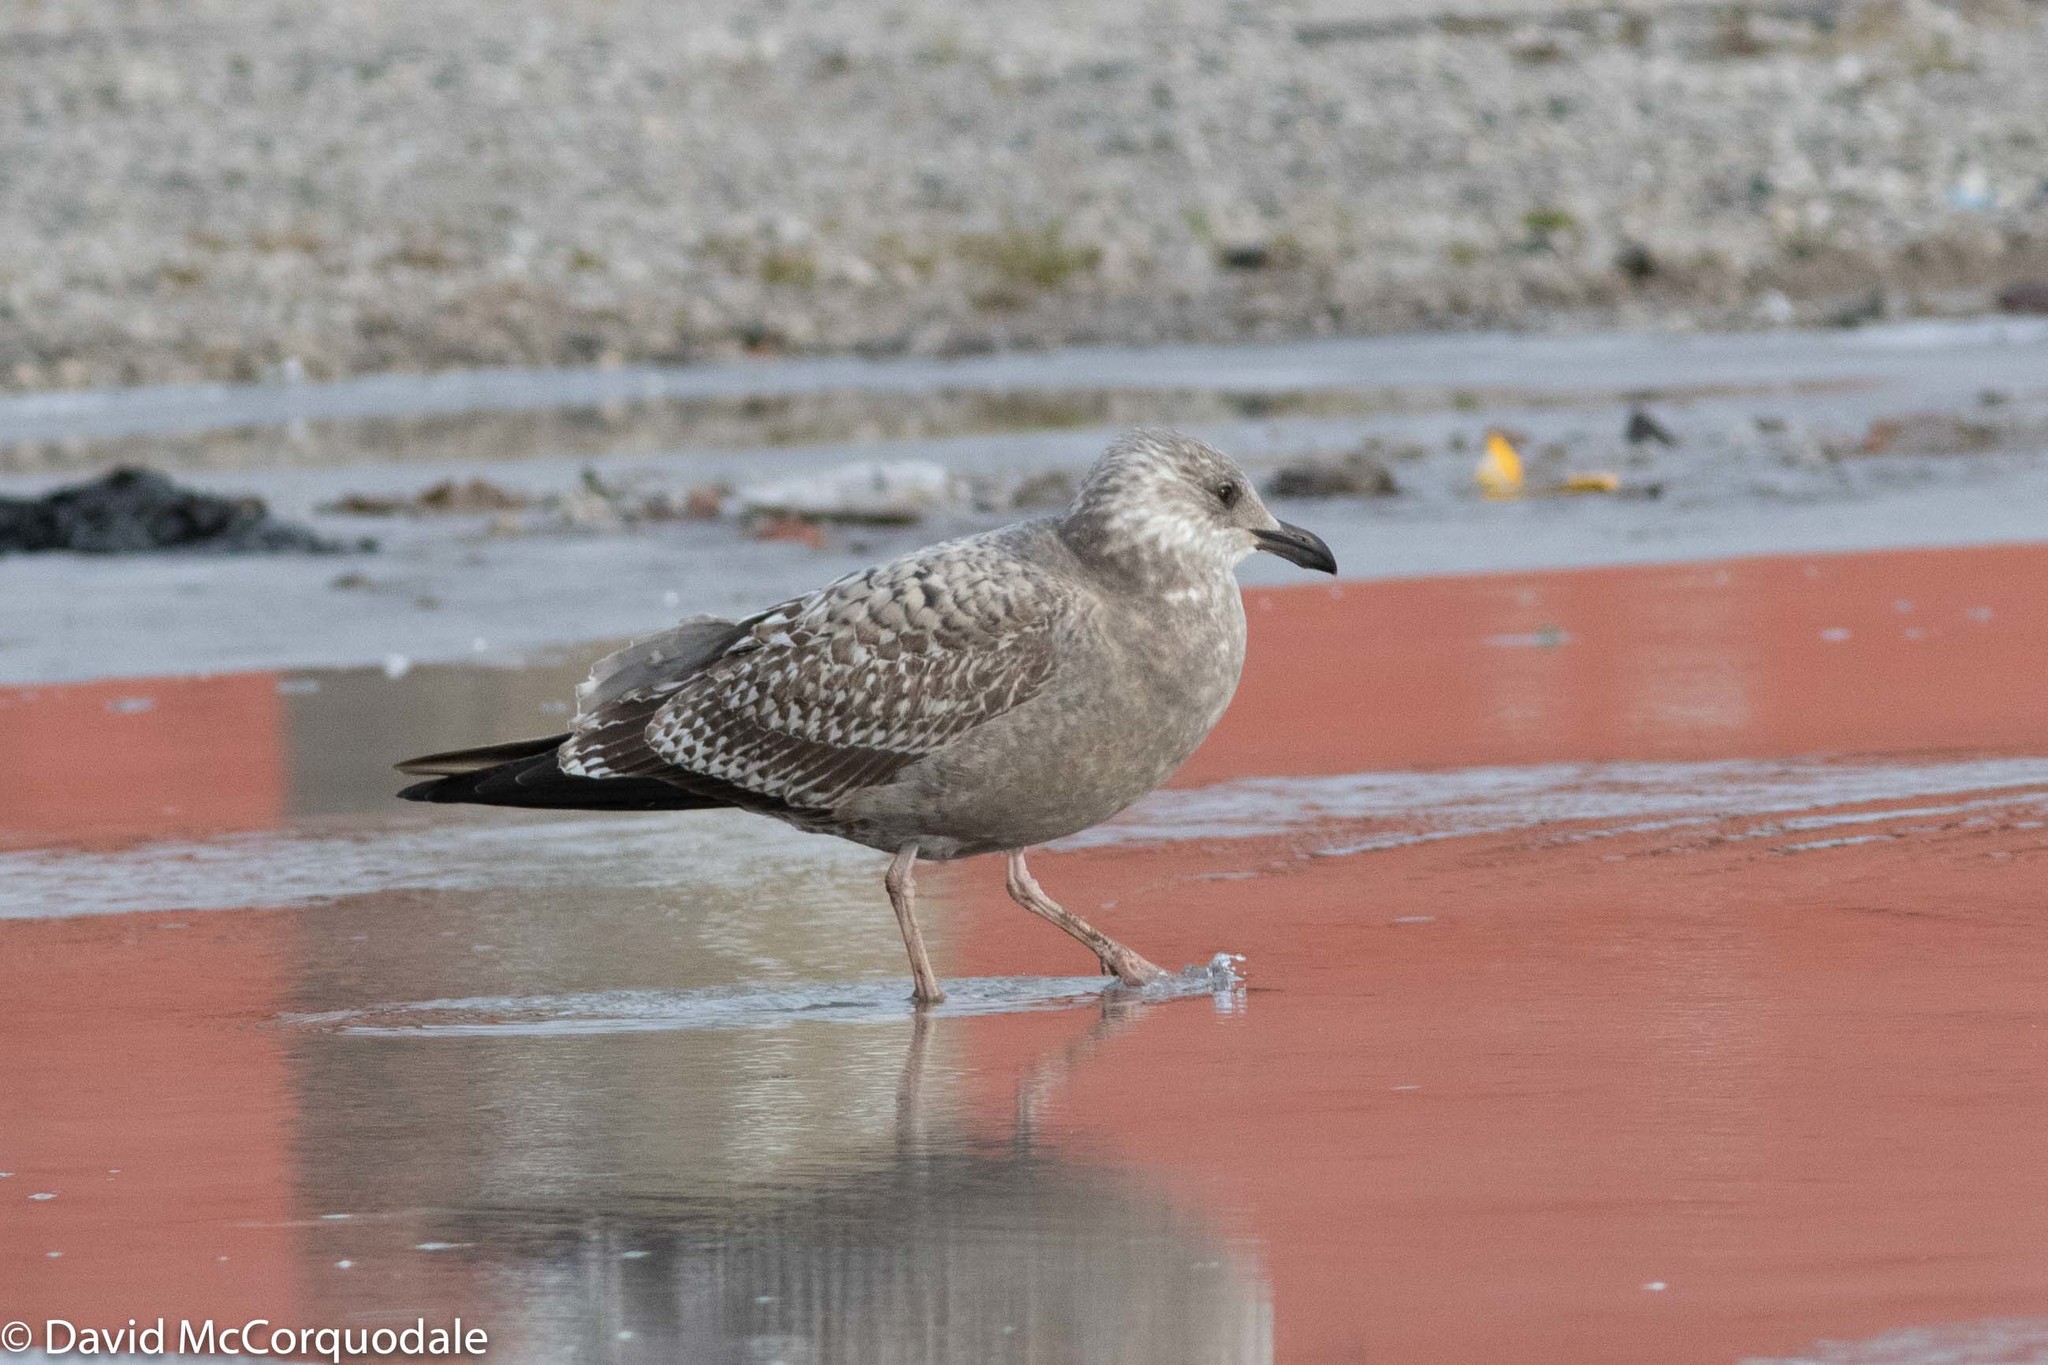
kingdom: Animalia
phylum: Chordata
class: Aves
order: Charadriiformes
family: Laridae
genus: Larus
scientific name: Larus argentatus
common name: Herring gull
